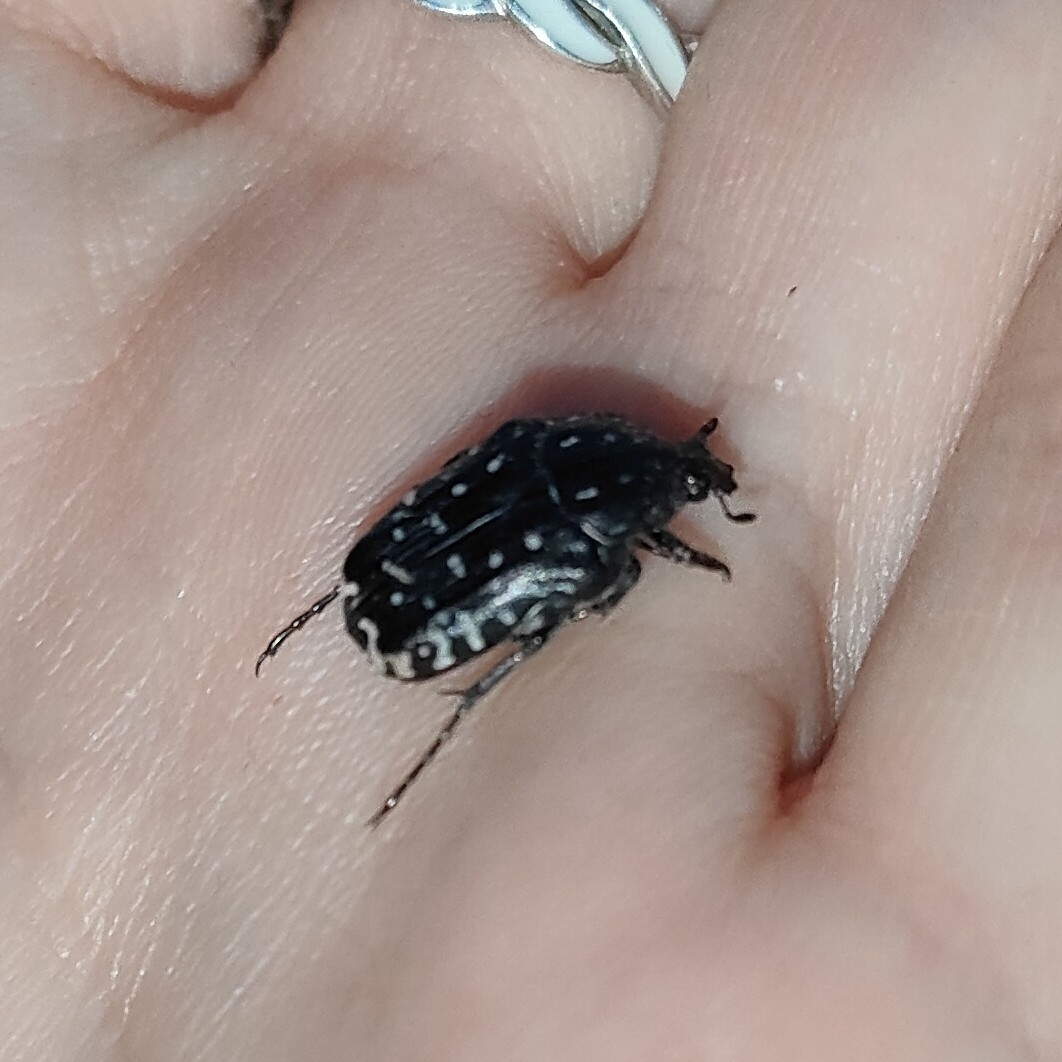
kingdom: Animalia
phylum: Arthropoda
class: Insecta
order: Coleoptera
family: Scarabaeidae
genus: Oxythyrea
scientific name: Oxythyrea funesta
